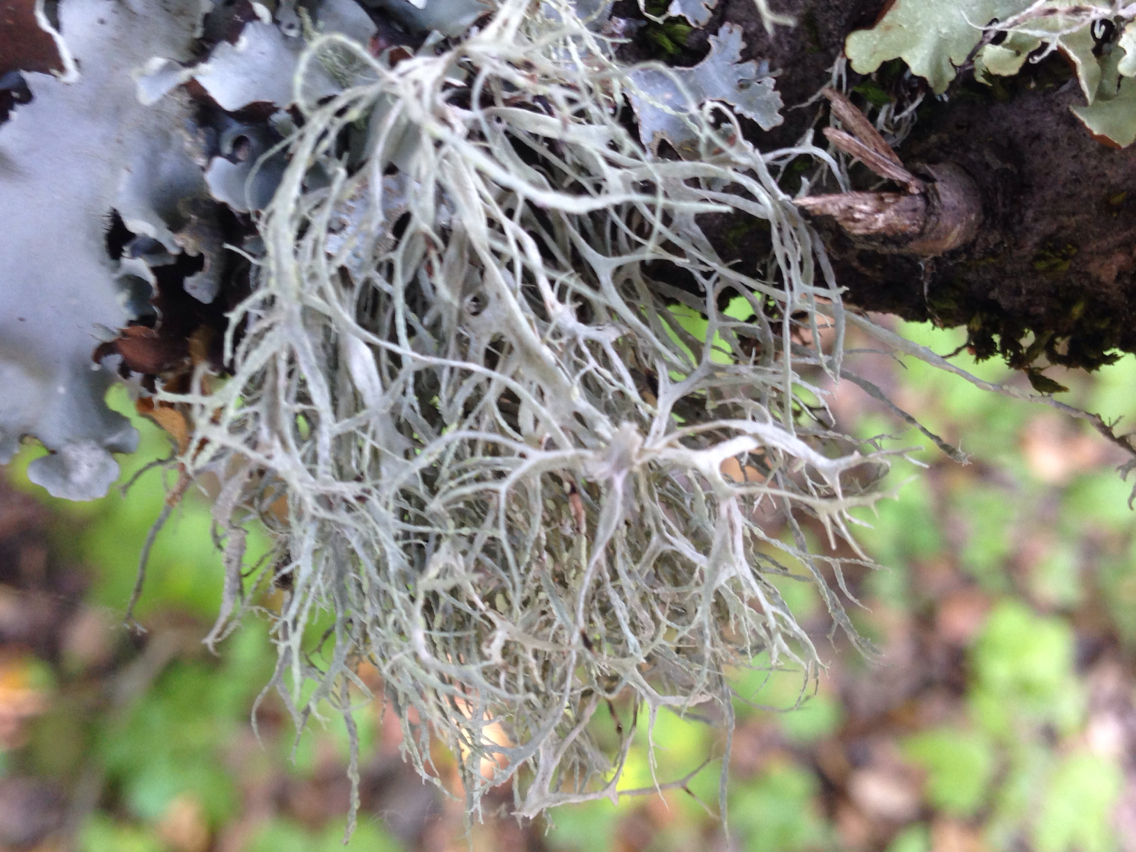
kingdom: Fungi
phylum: Ascomycota
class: Lecanoromycetes
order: Lecanorales
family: Ramalinaceae
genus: Ramalina
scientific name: Ramalina farinacea
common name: Farinose cartilage lichen
